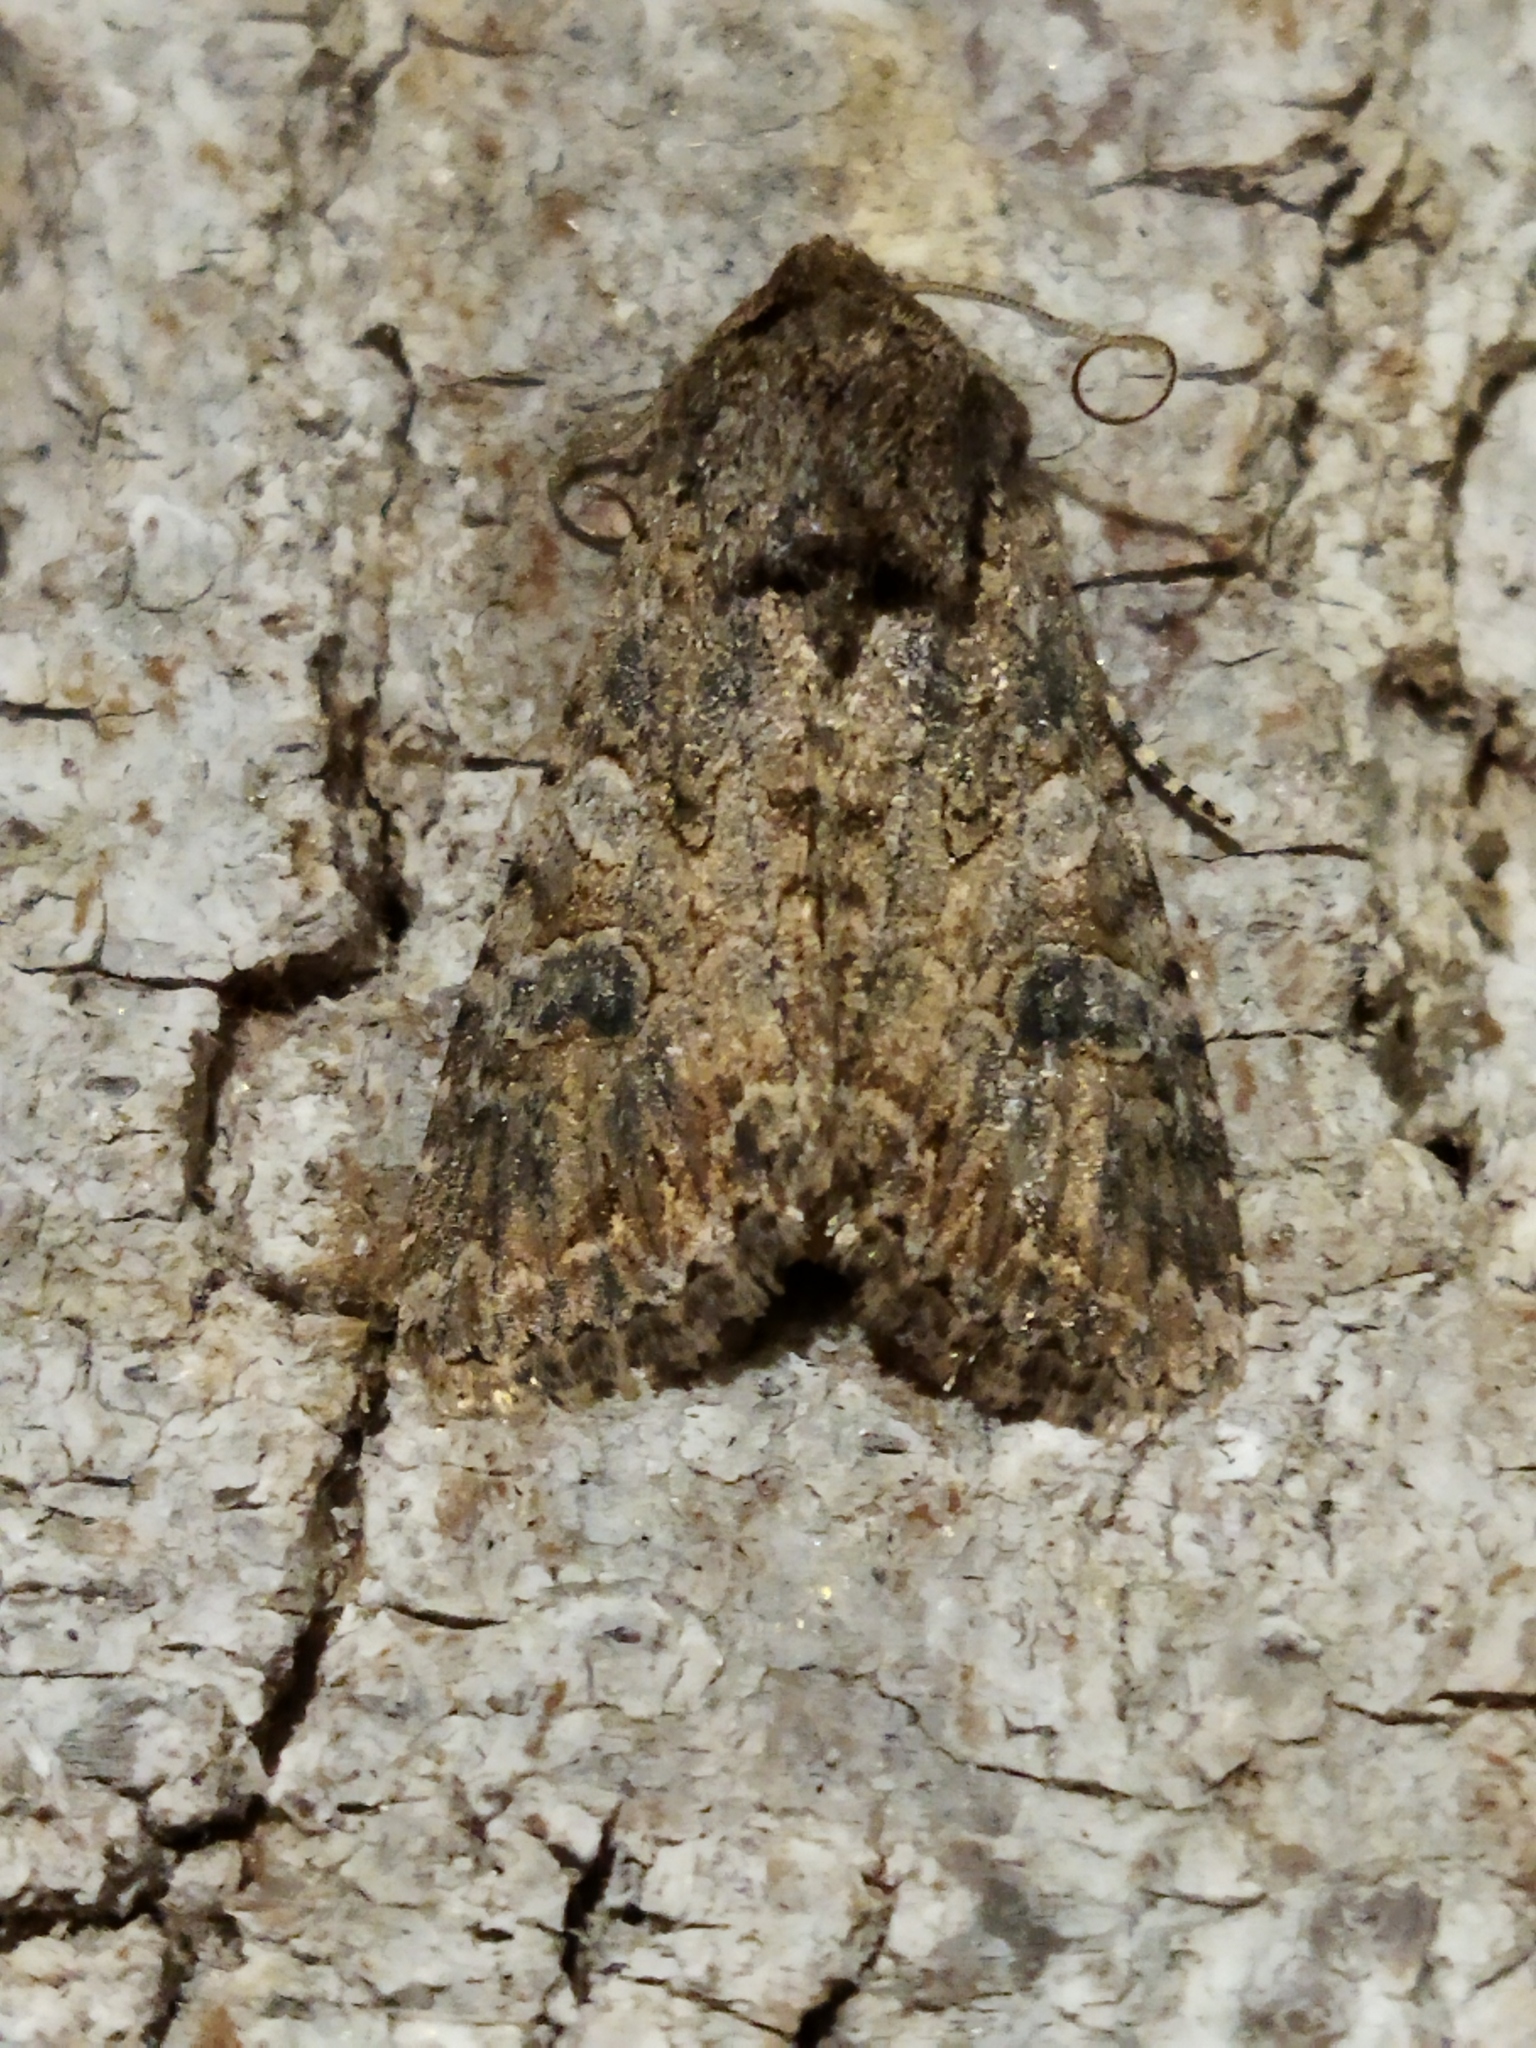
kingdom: Animalia
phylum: Arthropoda
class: Insecta
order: Lepidoptera
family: Noctuidae
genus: Anarta
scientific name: Anarta trifolii
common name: Clover cutworm moth
